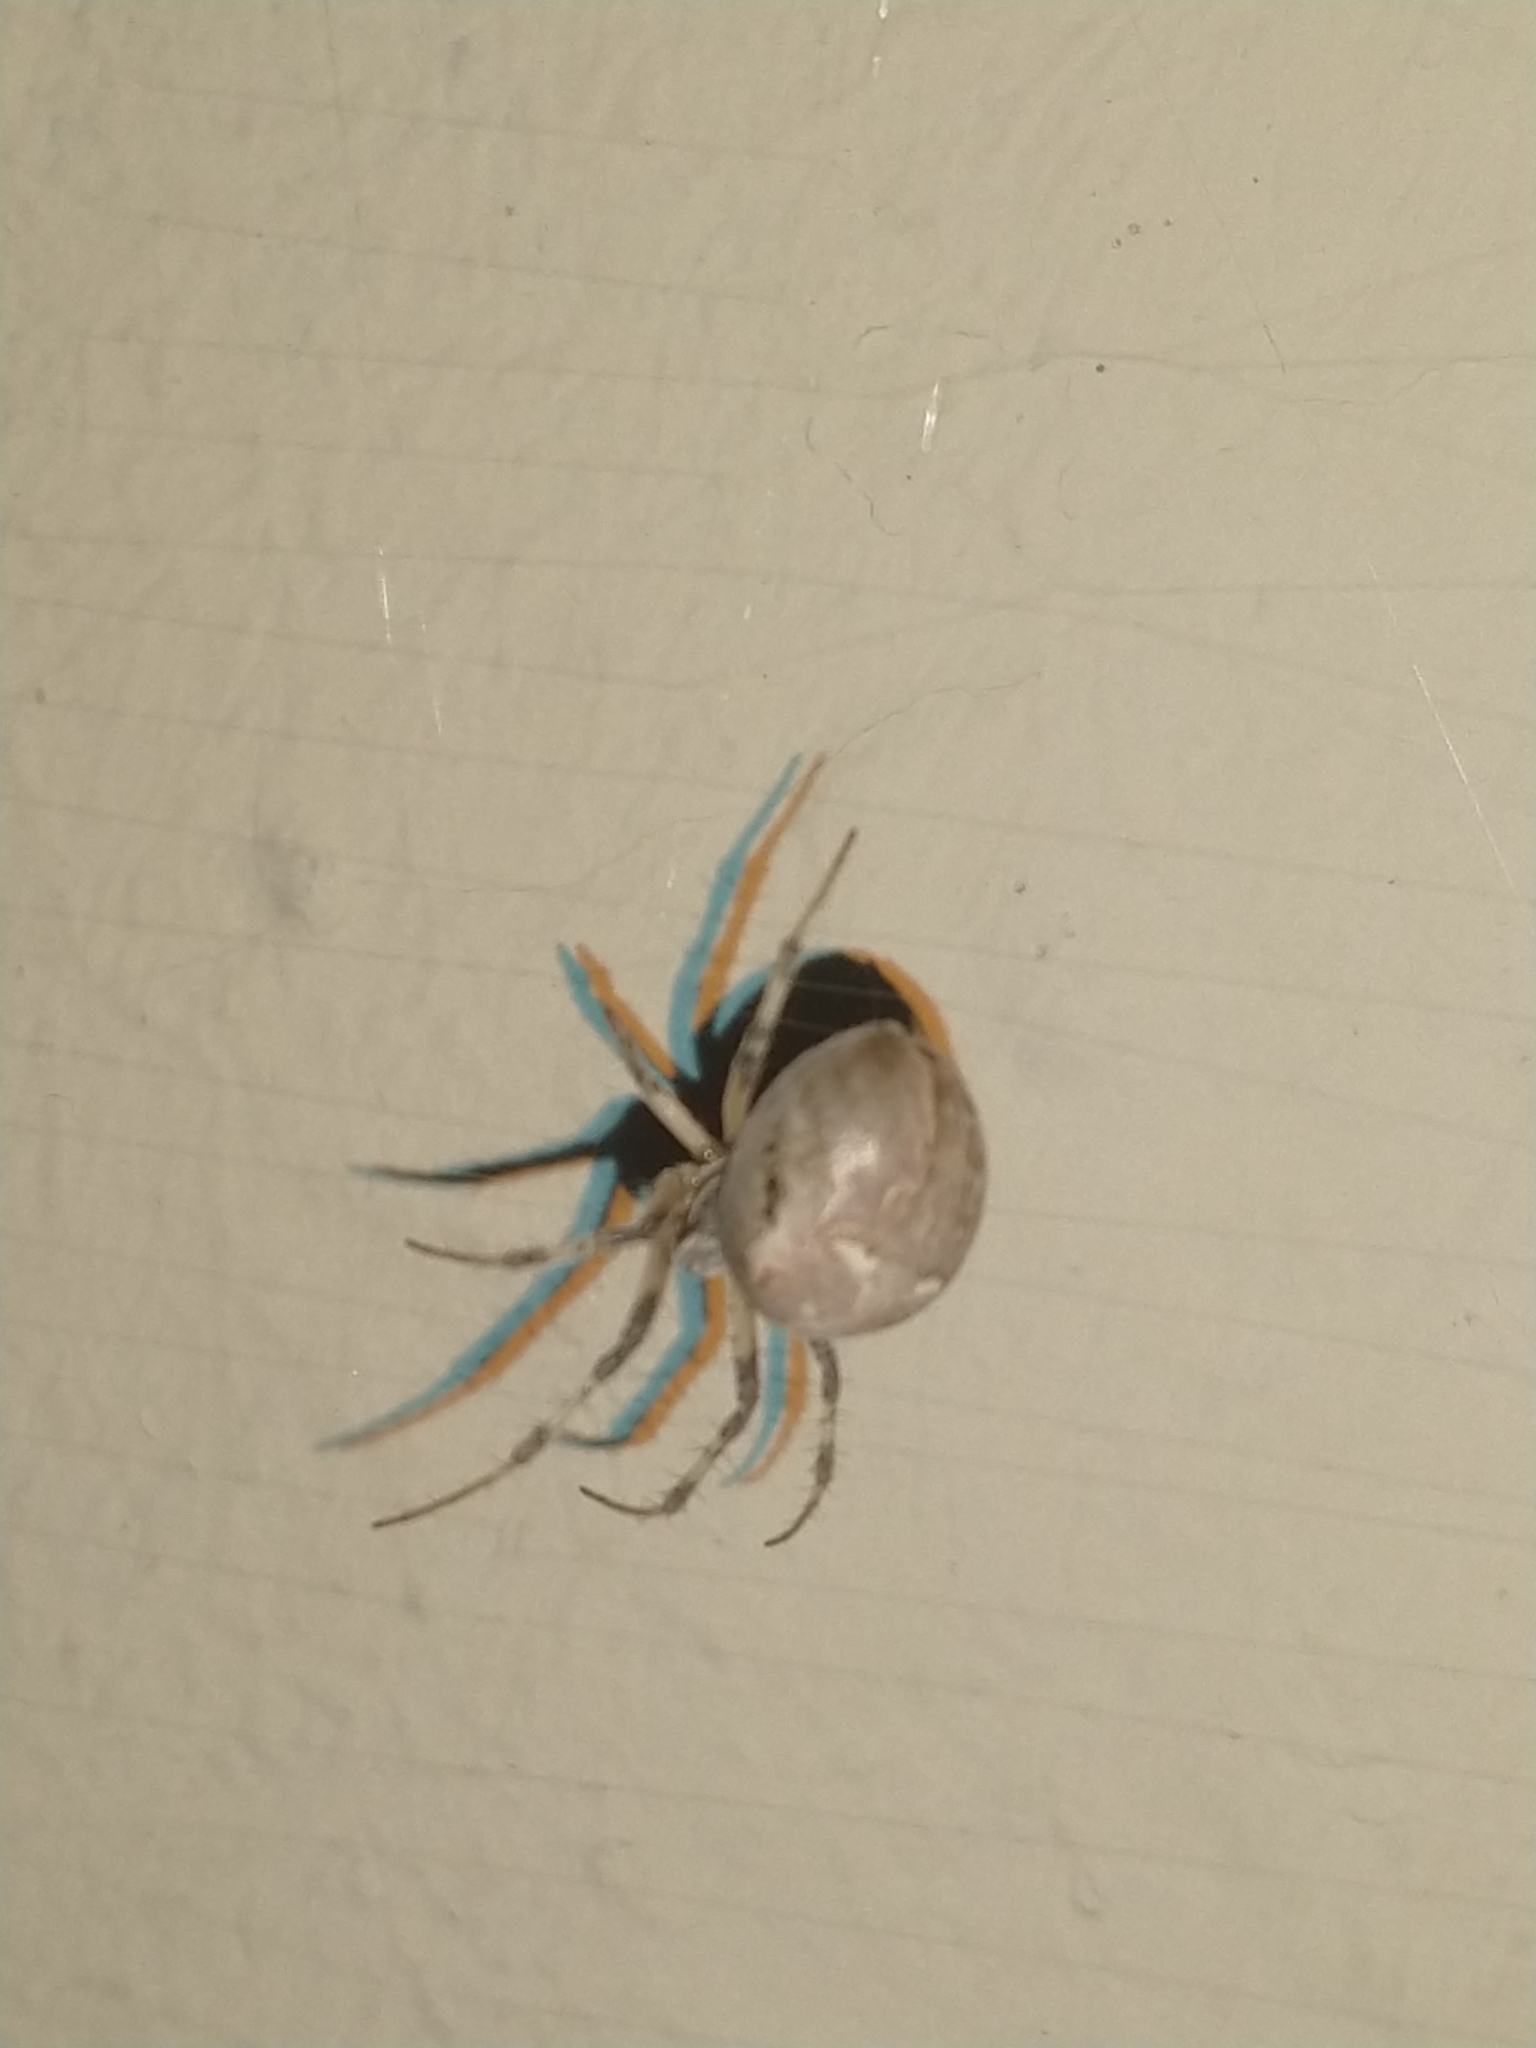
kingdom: Animalia
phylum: Arthropoda
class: Arachnida
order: Araneae
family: Araneidae
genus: Metepeira
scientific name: Metepeira
